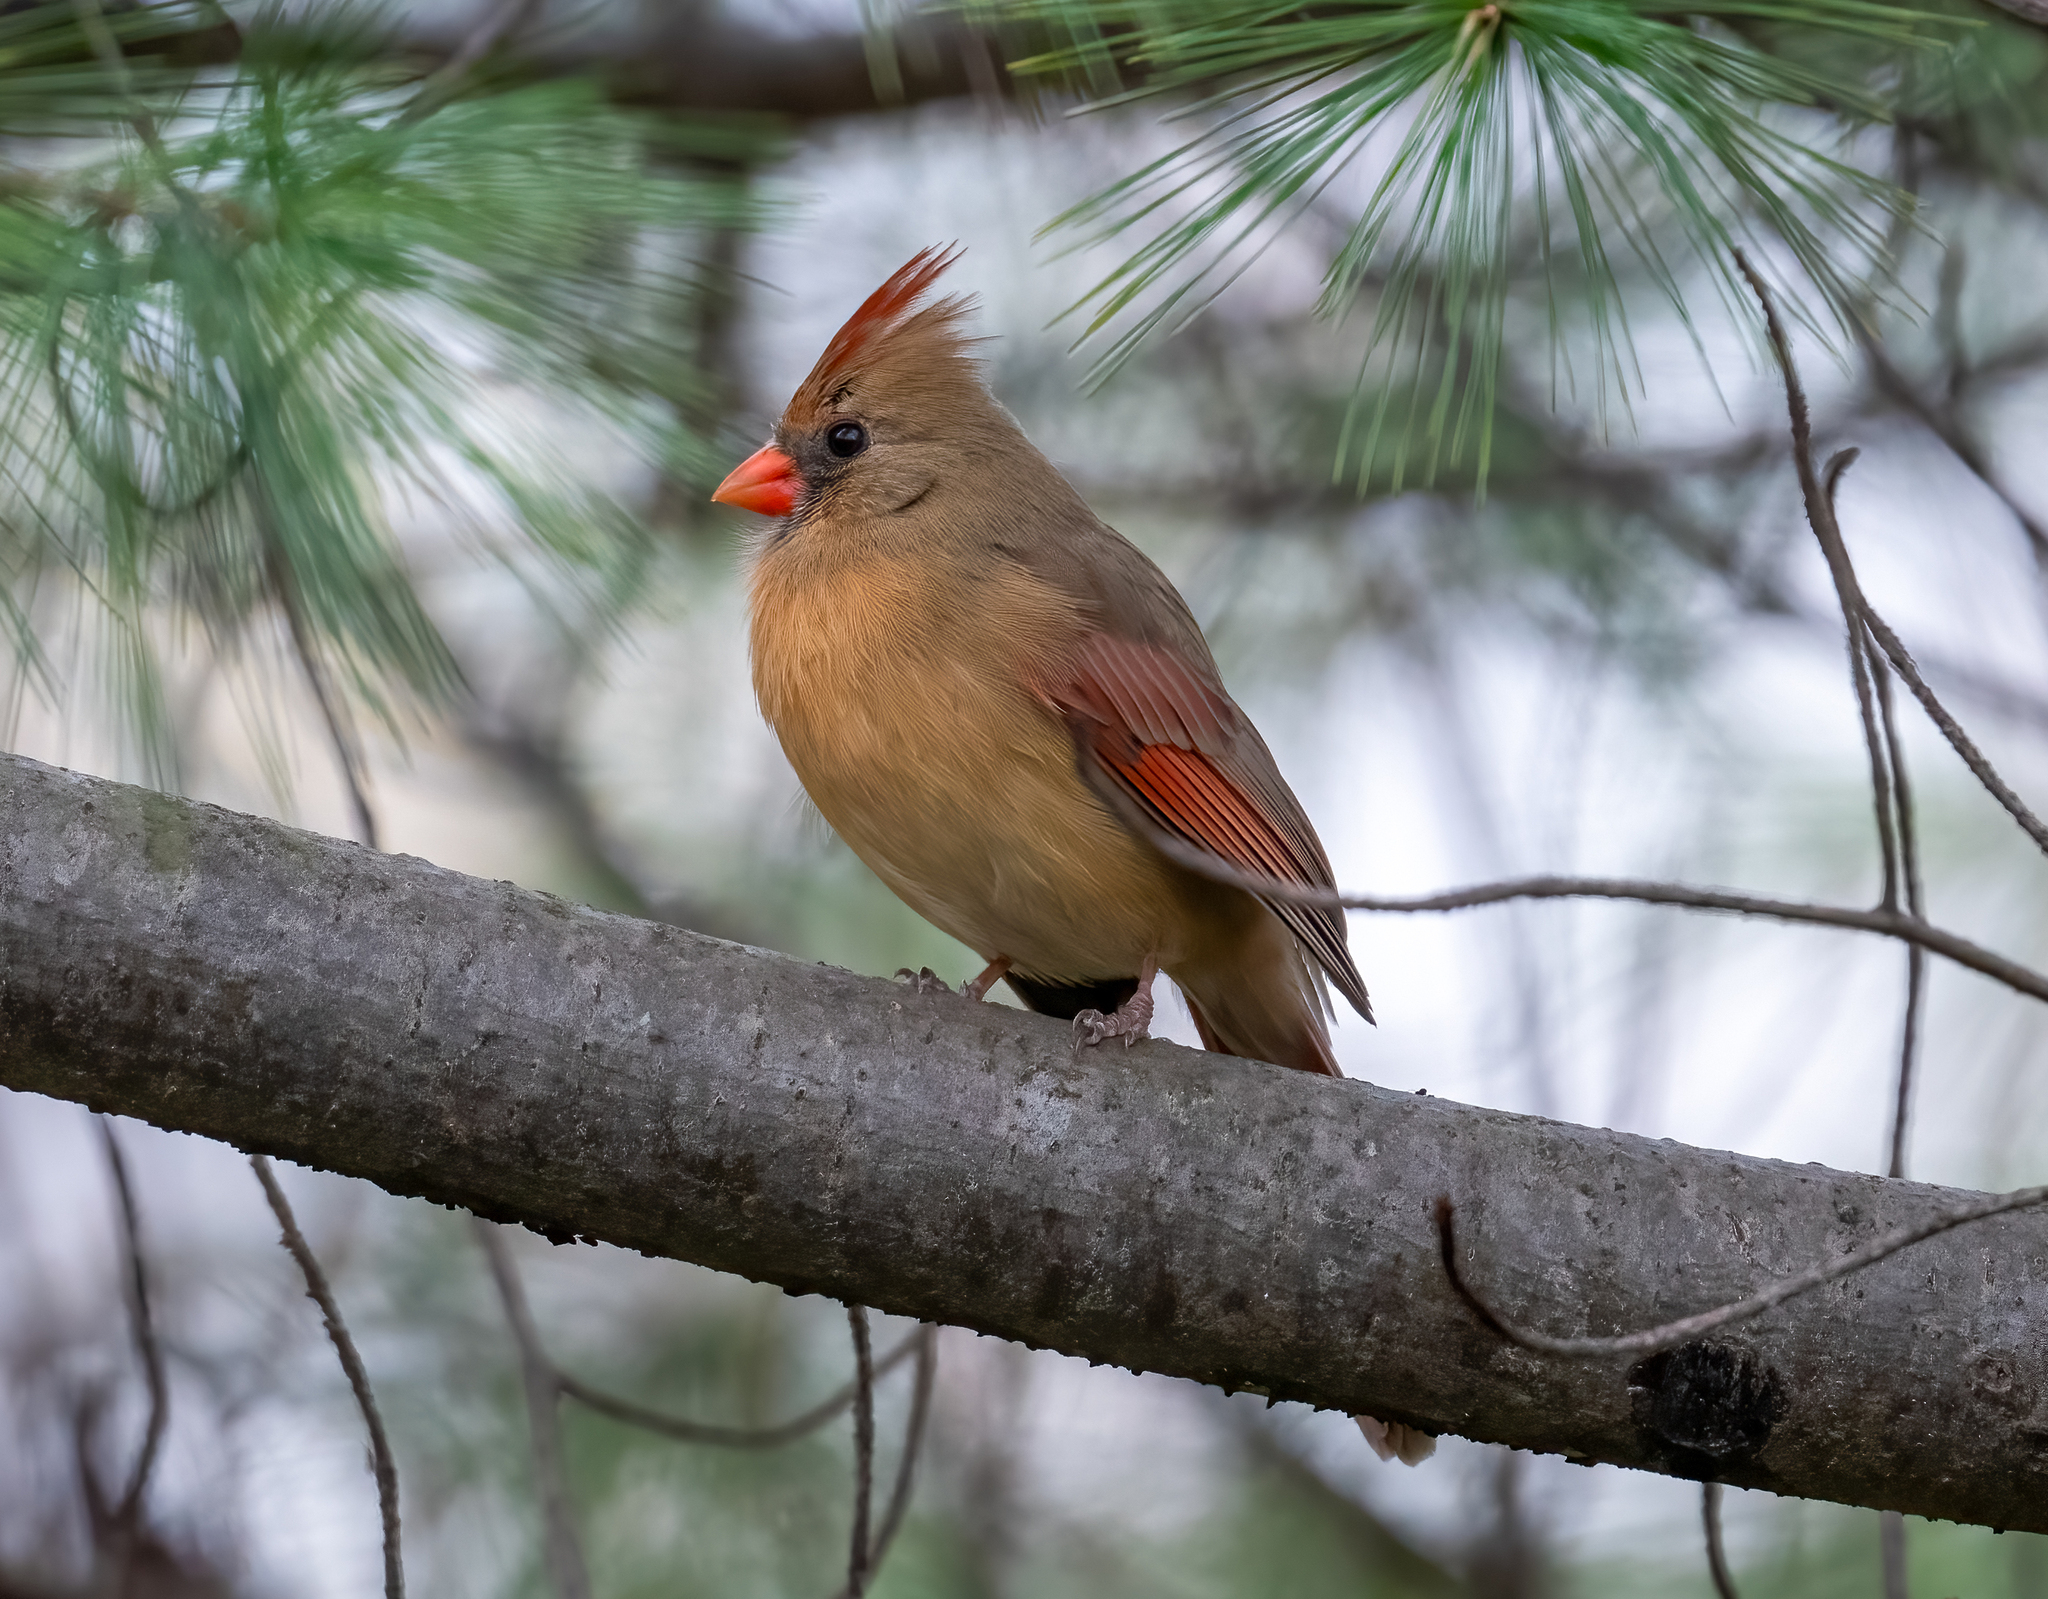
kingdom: Animalia
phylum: Chordata
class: Aves
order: Passeriformes
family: Cardinalidae
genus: Cardinalis
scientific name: Cardinalis cardinalis
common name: Northern cardinal
